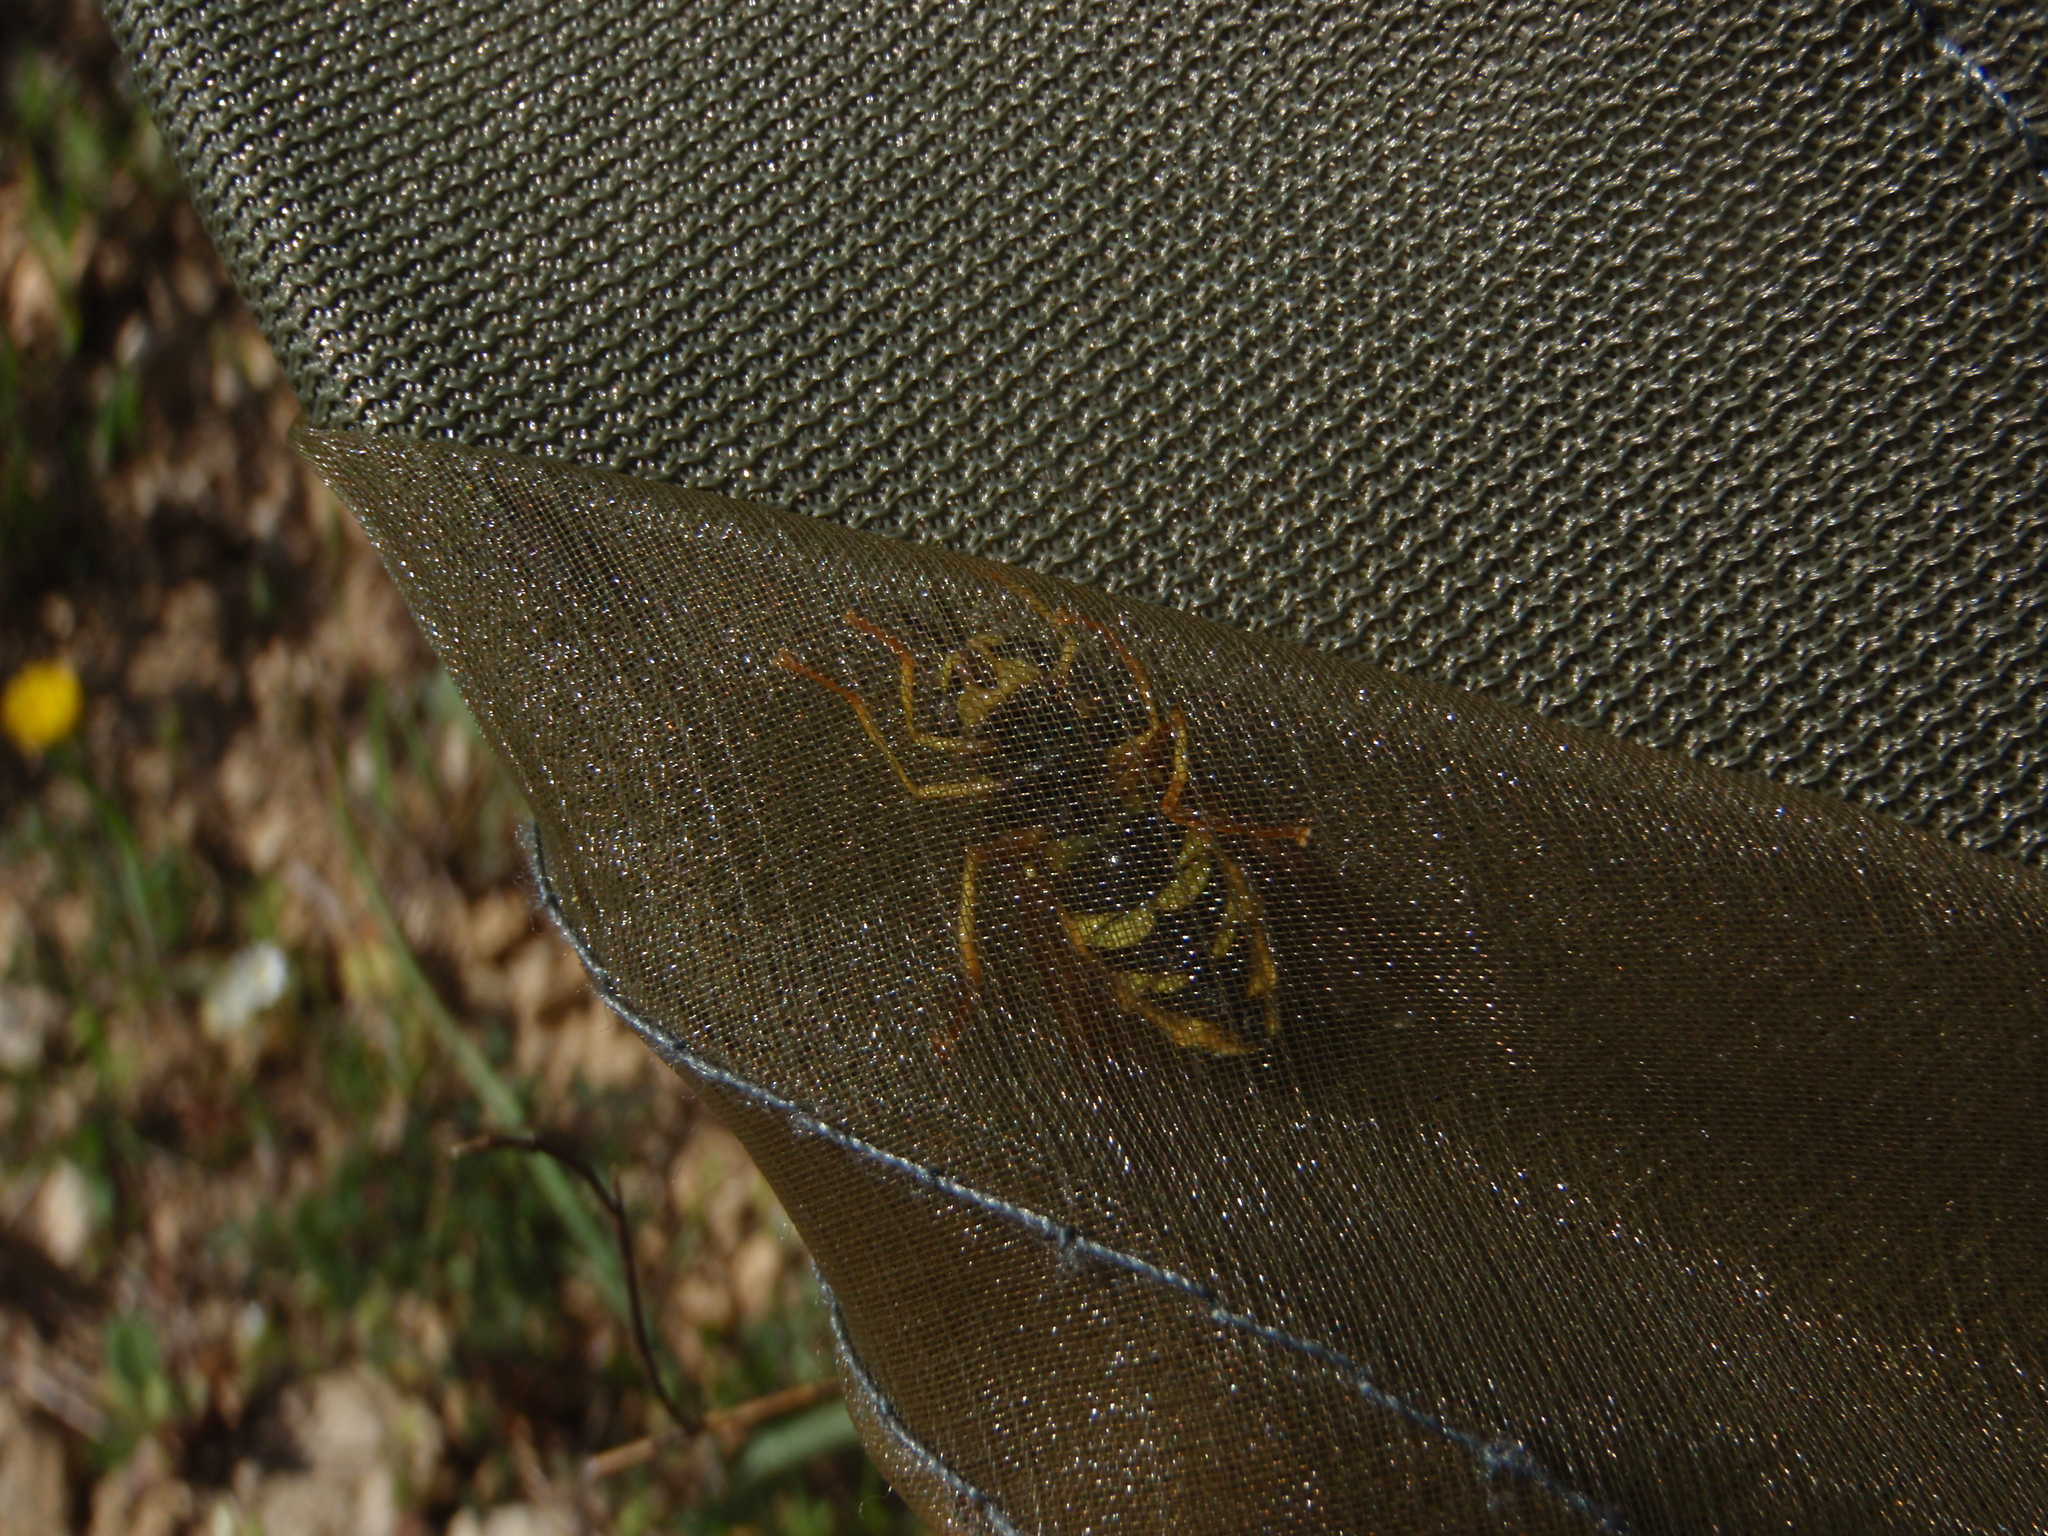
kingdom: Animalia
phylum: Arthropoda
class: Insecta
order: Diptera
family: Syrphidae
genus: Chrysotoxum
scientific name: Chrysotoxum intermedium
